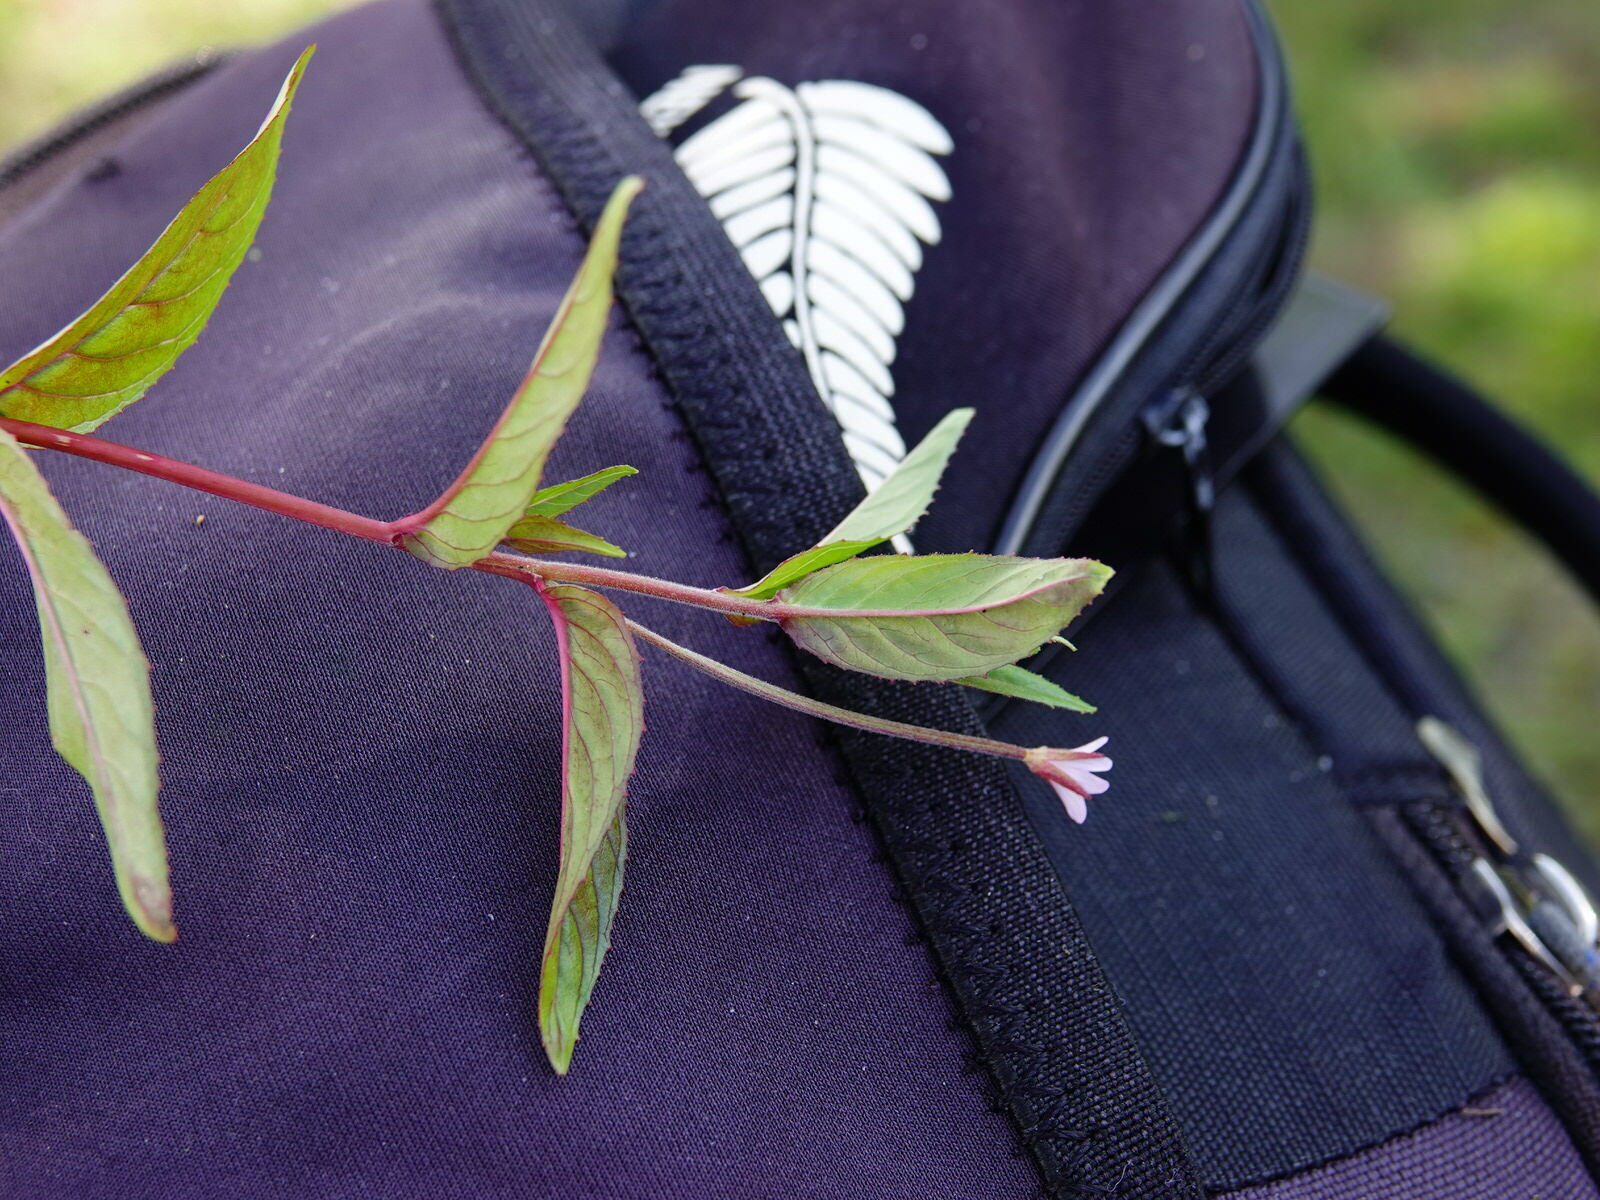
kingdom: Plantae
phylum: Tracheophyta
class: Magnoliopsida
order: Myrtales
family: Onagraceae
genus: Epilobium
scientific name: Epilobium ciliatum
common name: American willowherb
